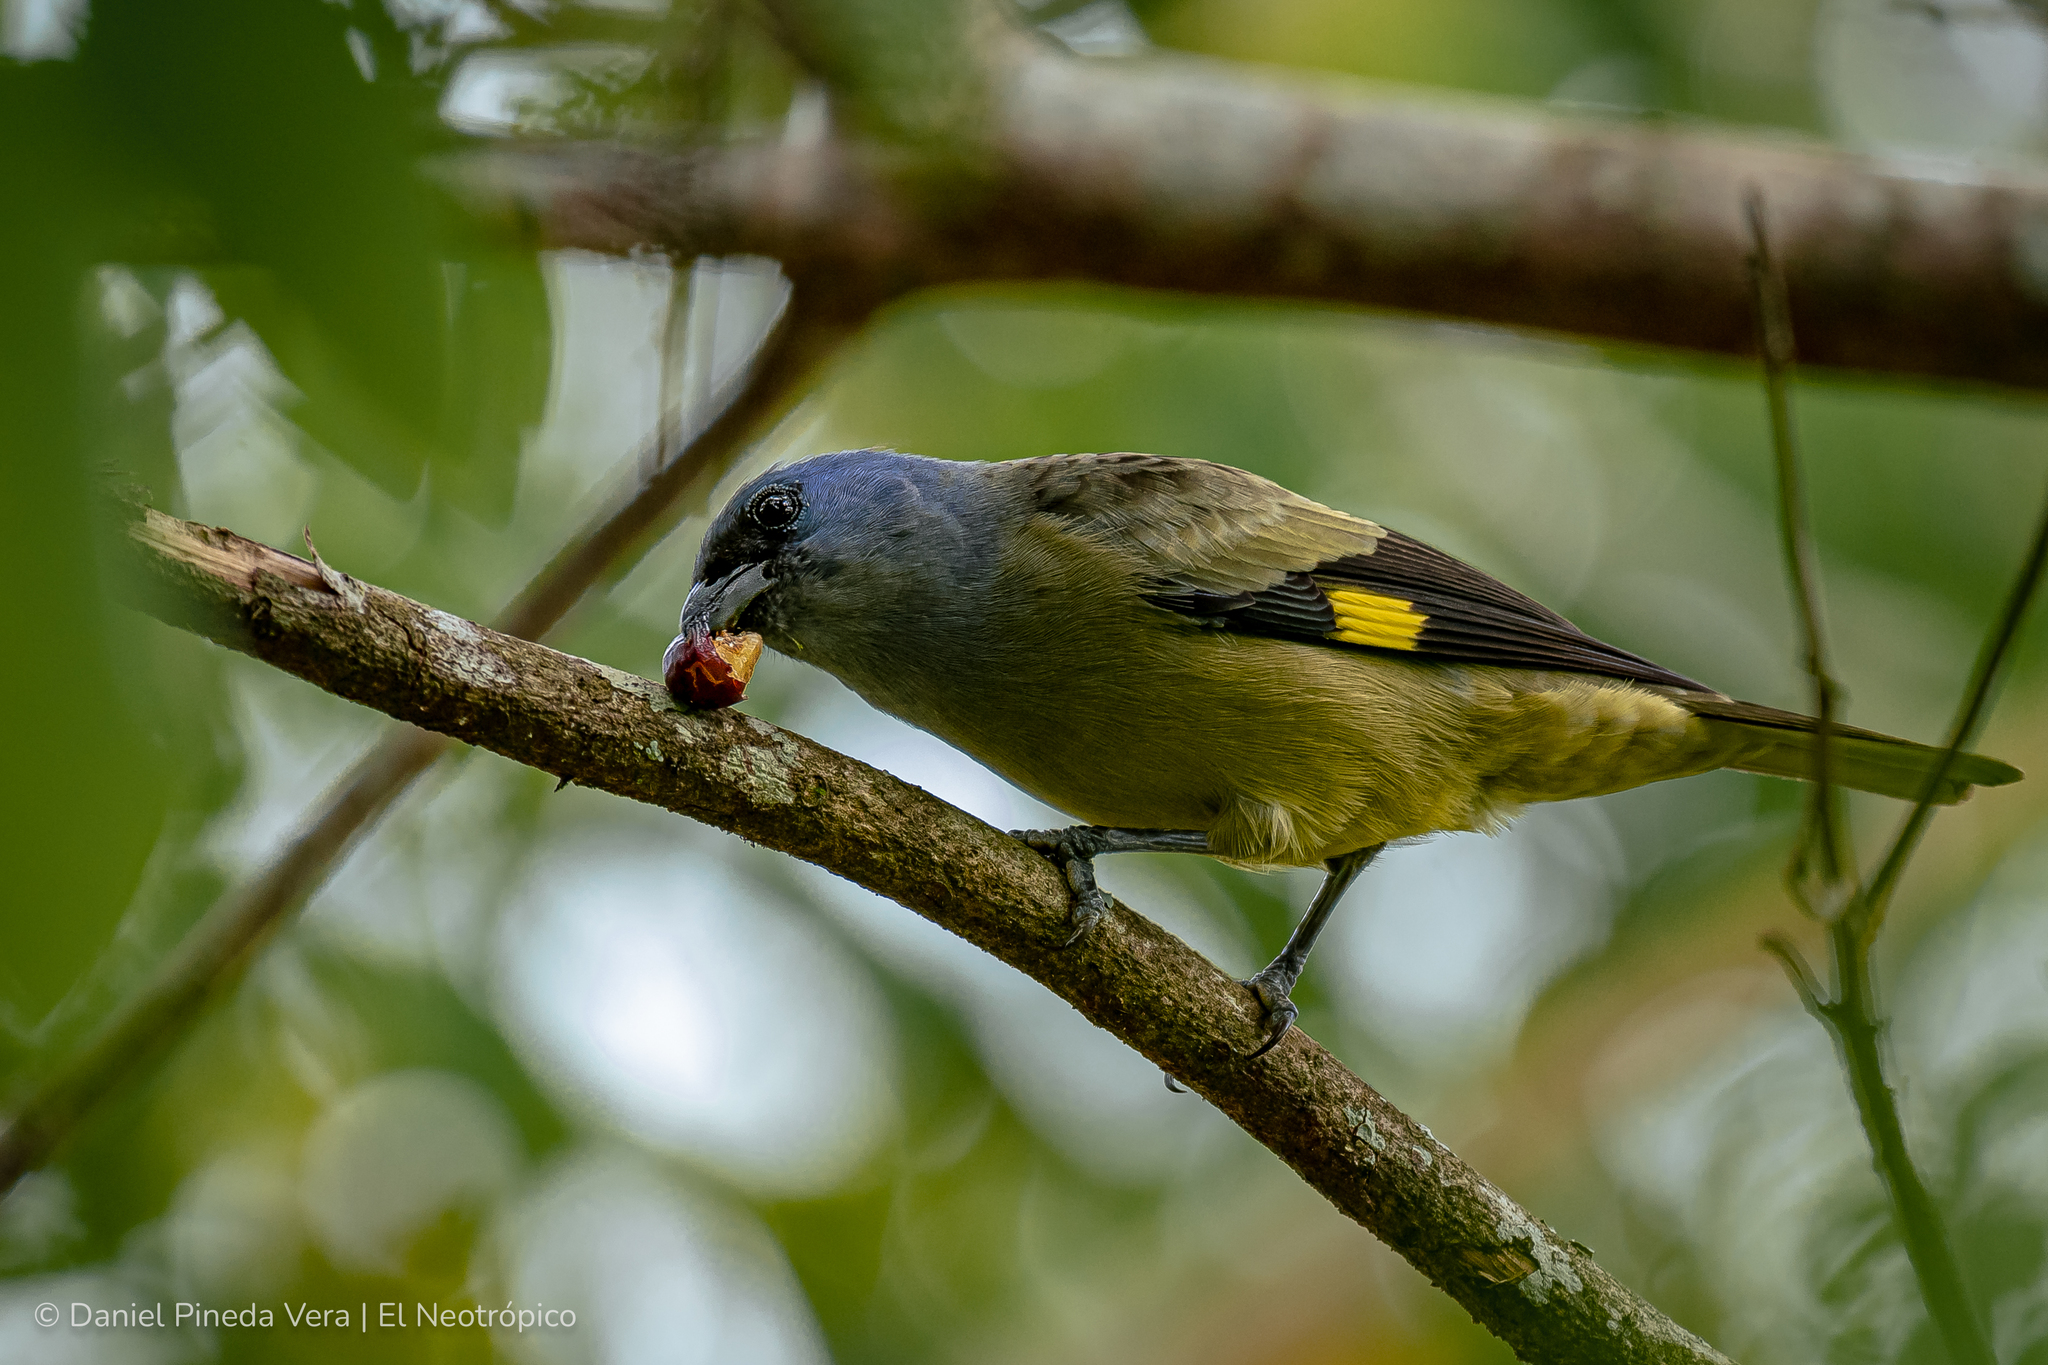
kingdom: Animalia
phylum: Chordata
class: Aves
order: Passeriformes
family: Thraupidae
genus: Thraupis
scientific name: Thraupis abbas
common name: Yellow-winged tanager
